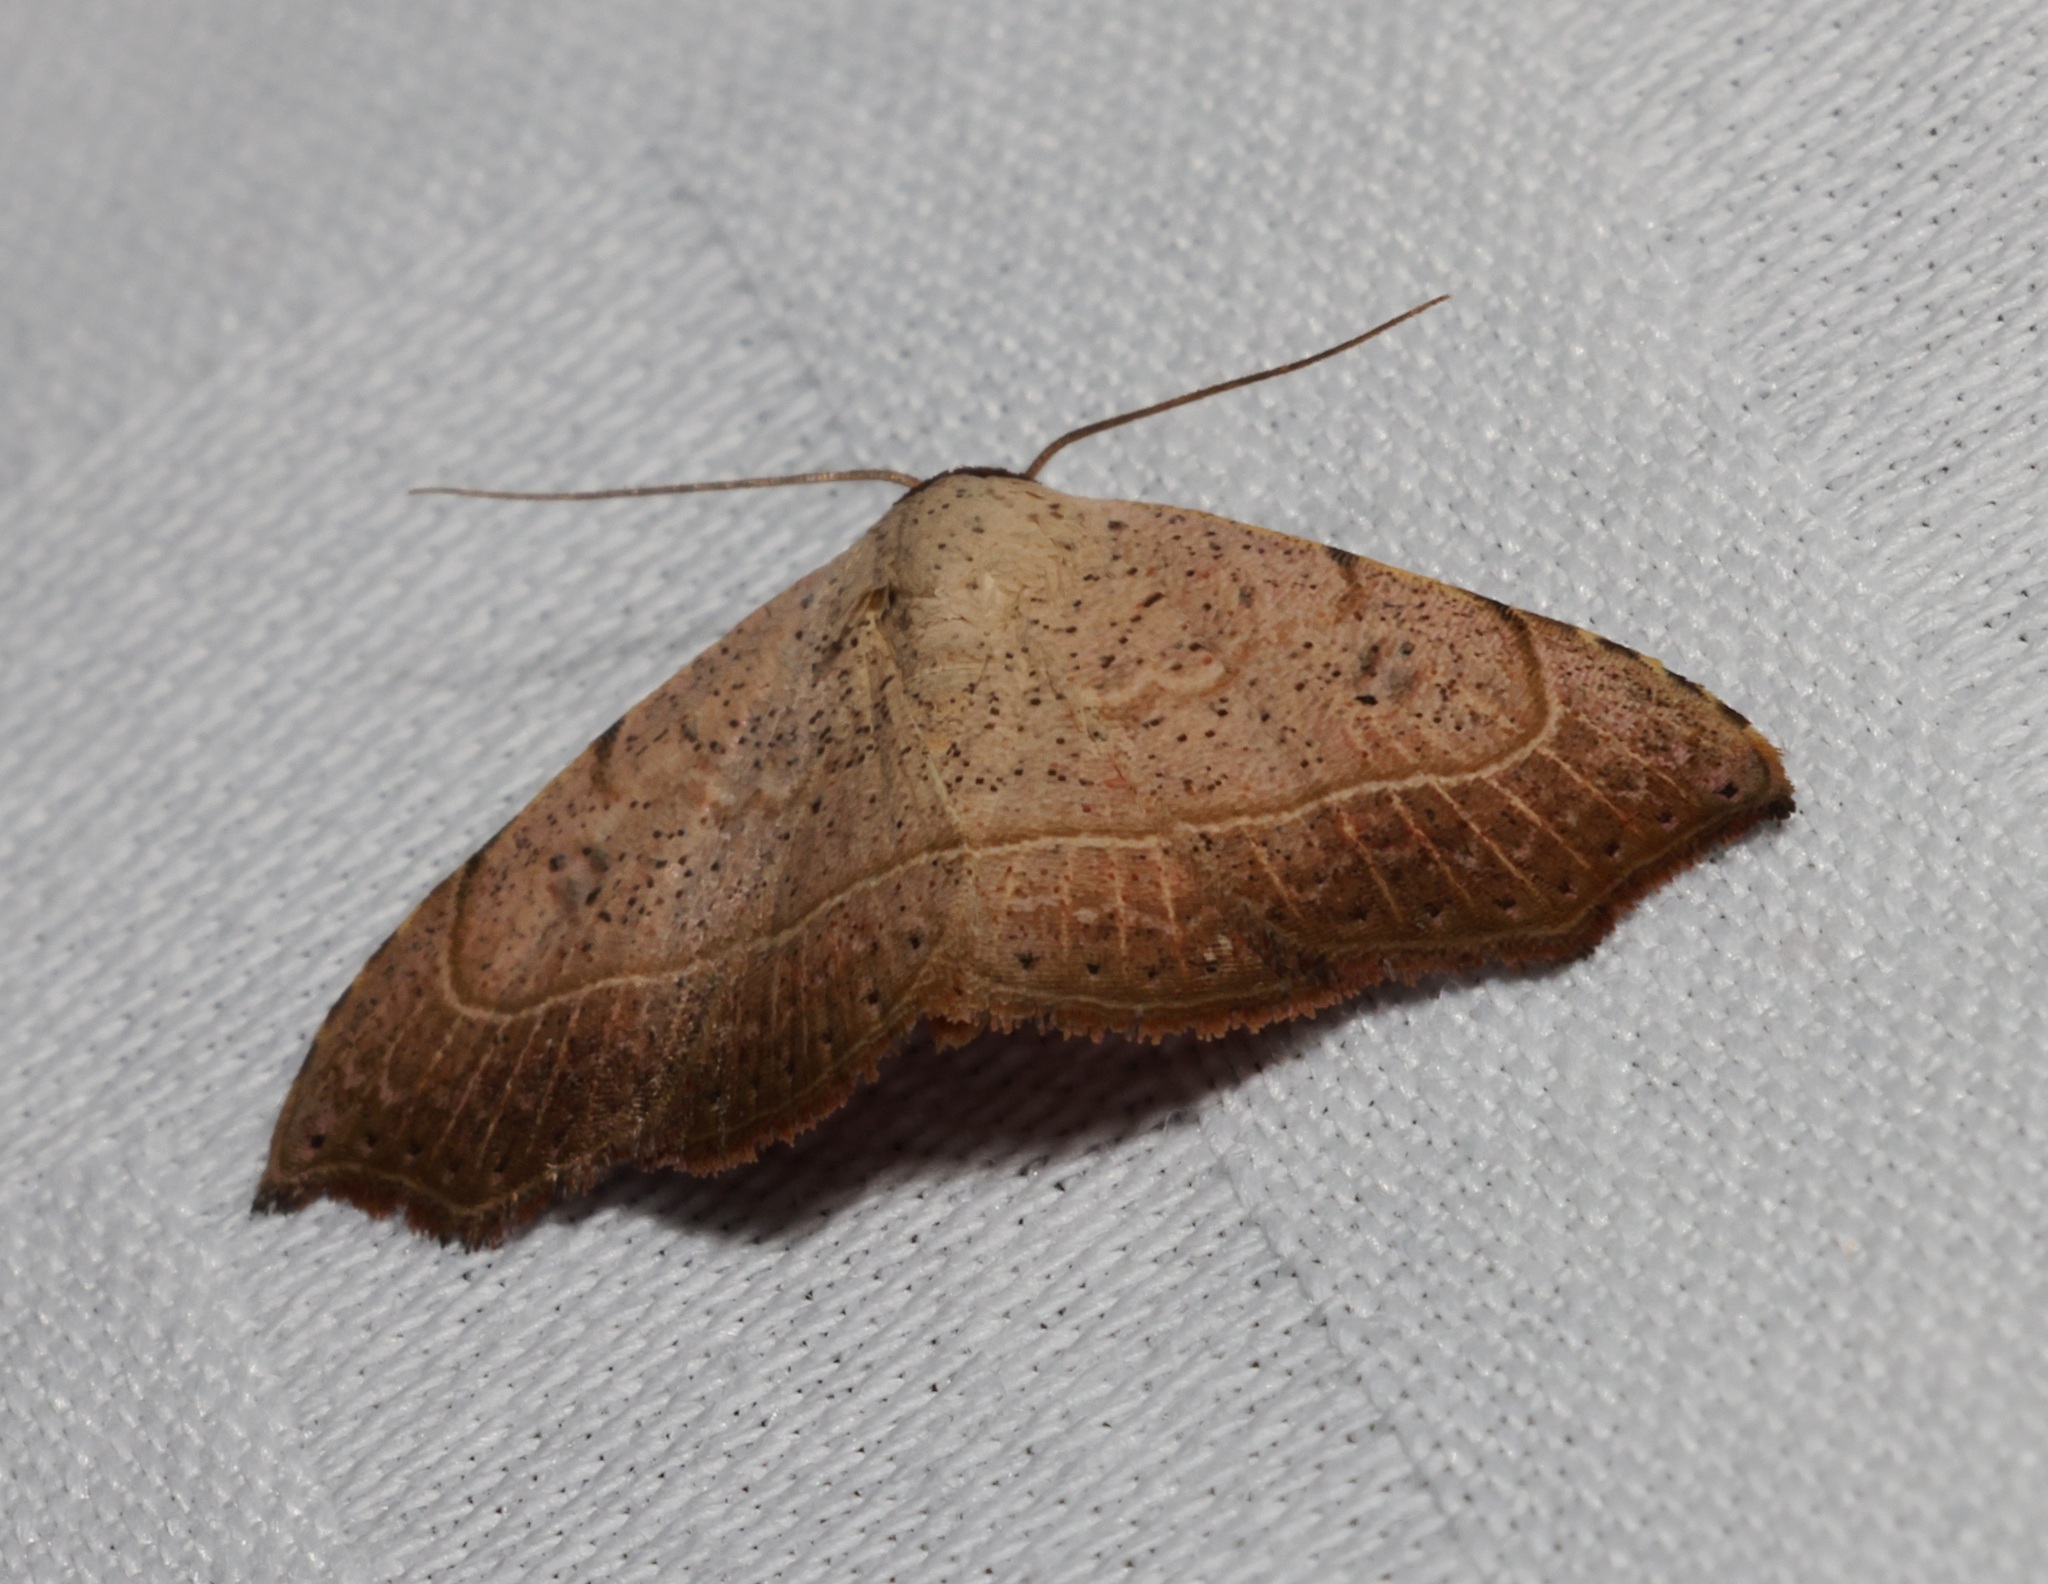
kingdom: Animalia
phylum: Arthropoda
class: Insecta
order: Lepidoptera
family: Erebidae
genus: Laspeyria
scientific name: Laspeyria ruficeps
